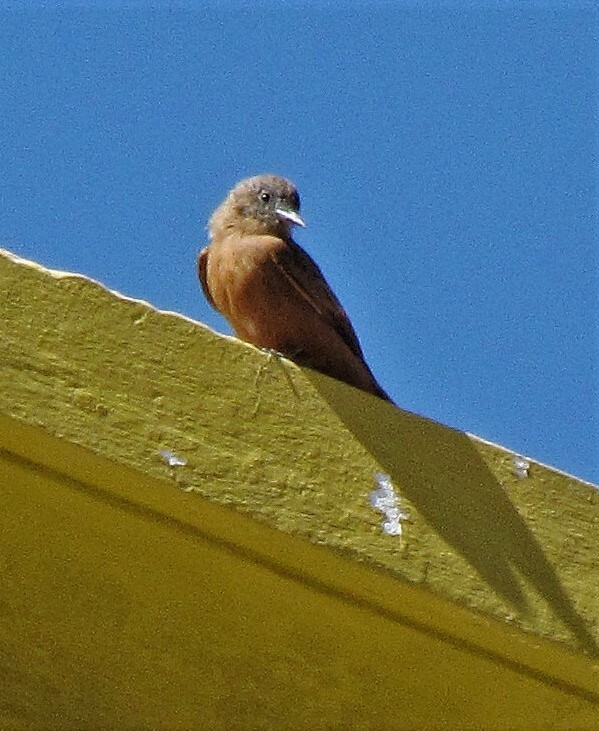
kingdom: Animalia
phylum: Chordata
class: Aves
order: Passeriformes
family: Tyrannidae
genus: Hirundinea
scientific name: Hirundinea ferruginea
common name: Cliff flycatcher
